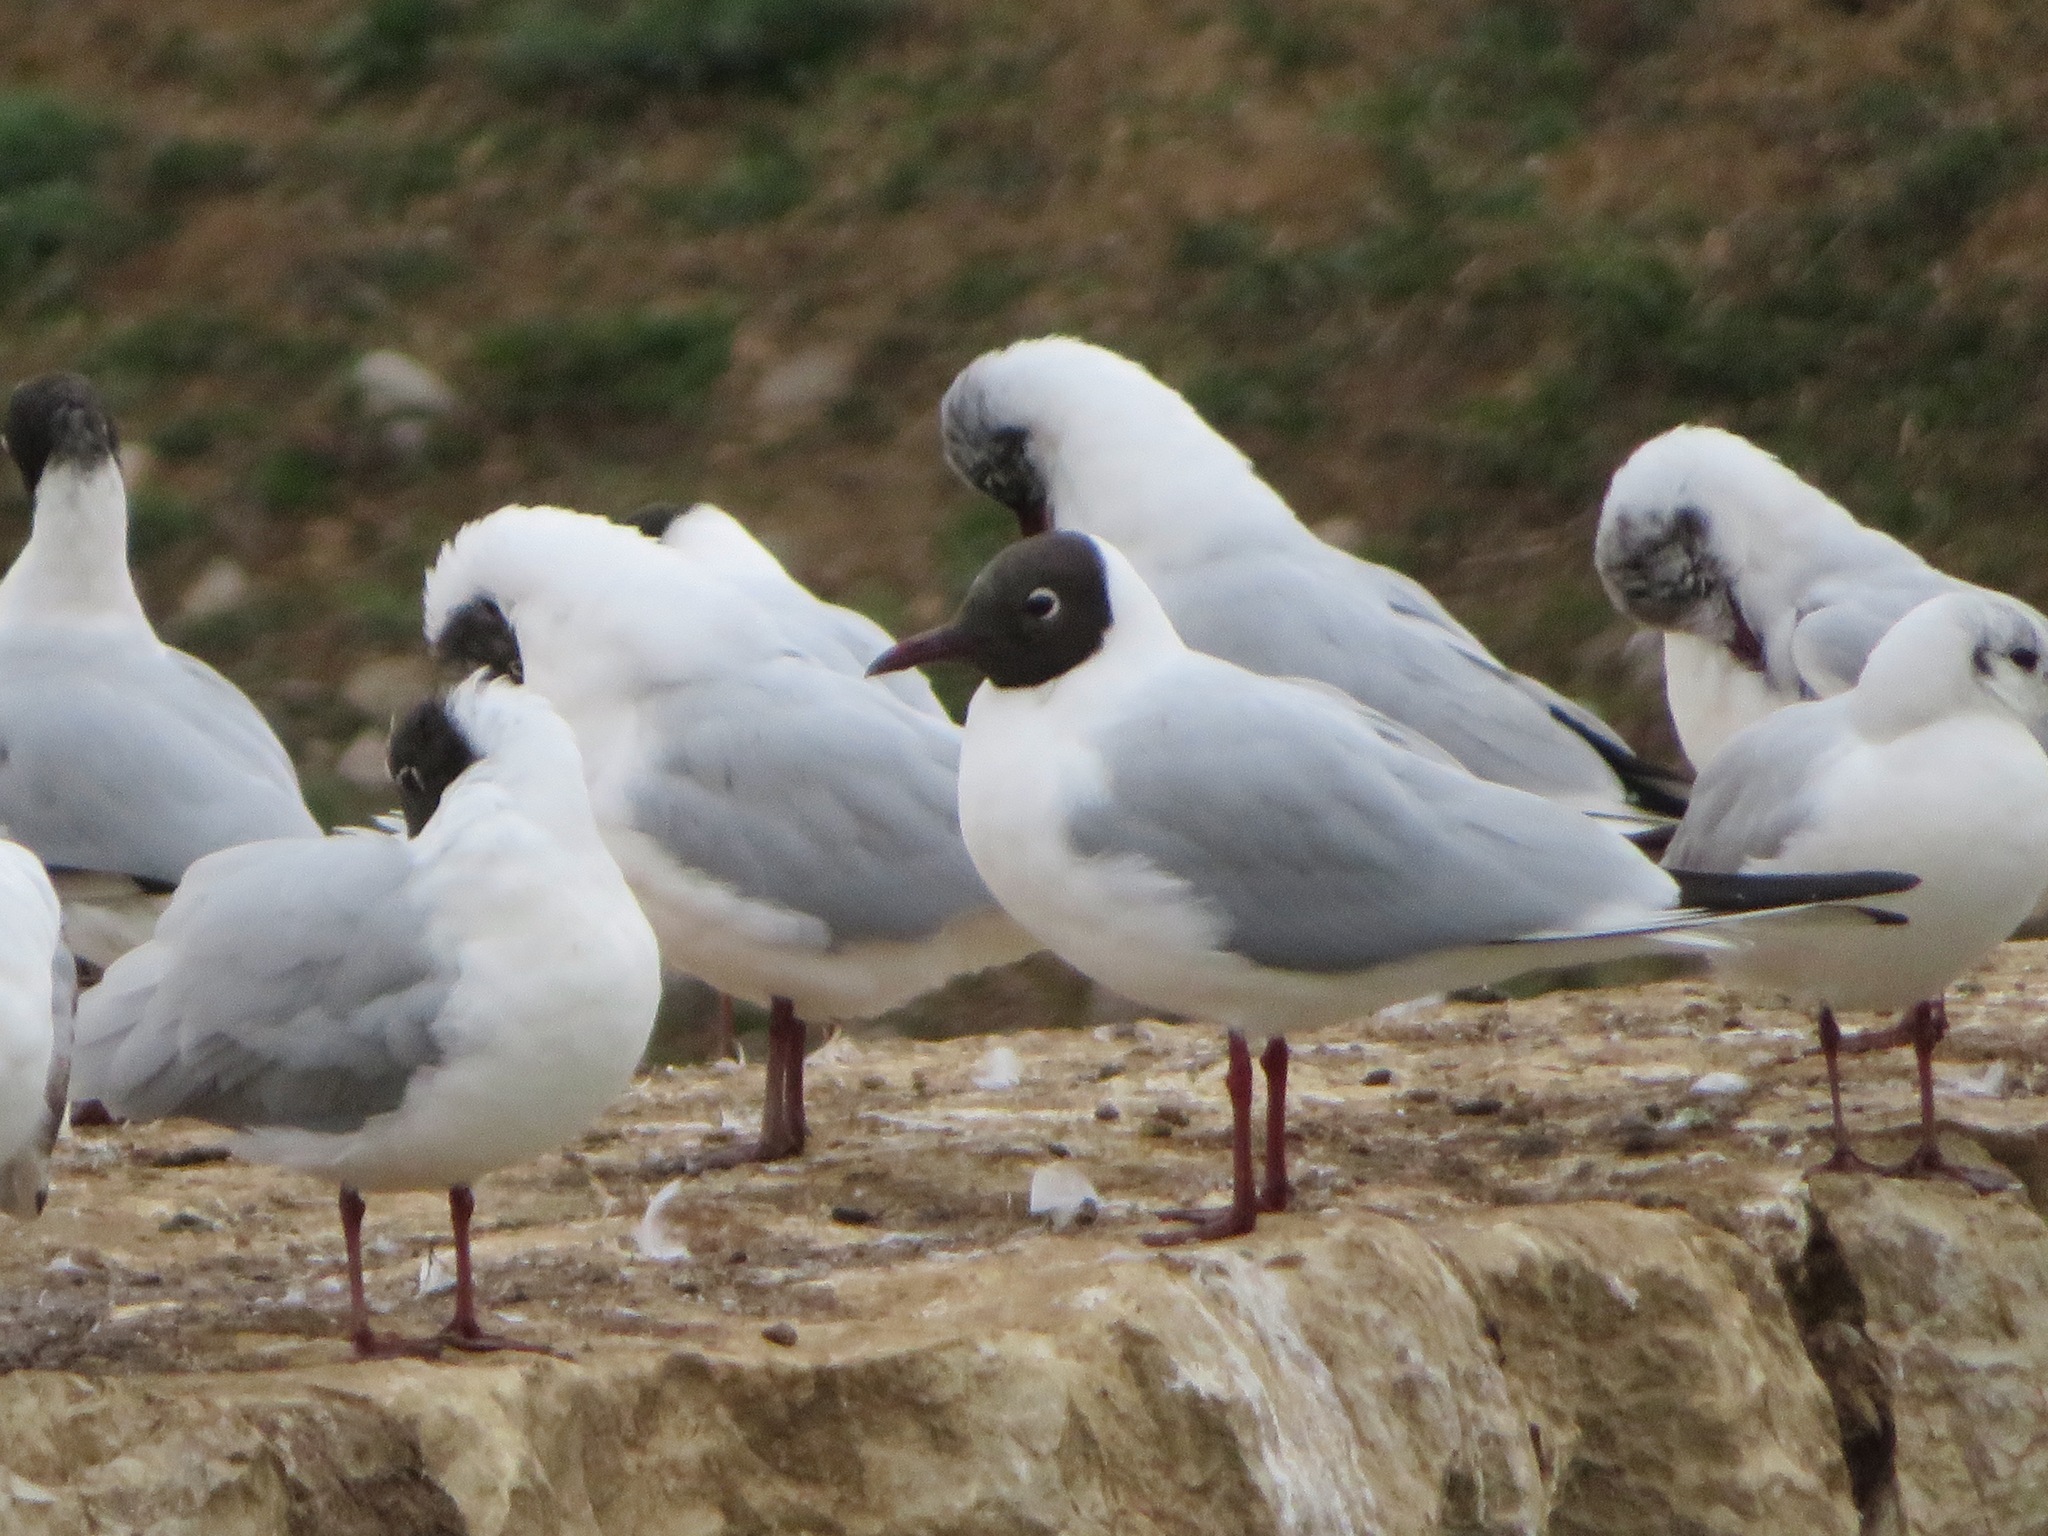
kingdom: Animalia
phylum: Chordata
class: Aves
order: Charadriiformes
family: Laridae
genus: Chroicocephalus
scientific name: Chroicocephalus ridibundus
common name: Black-headed gull
